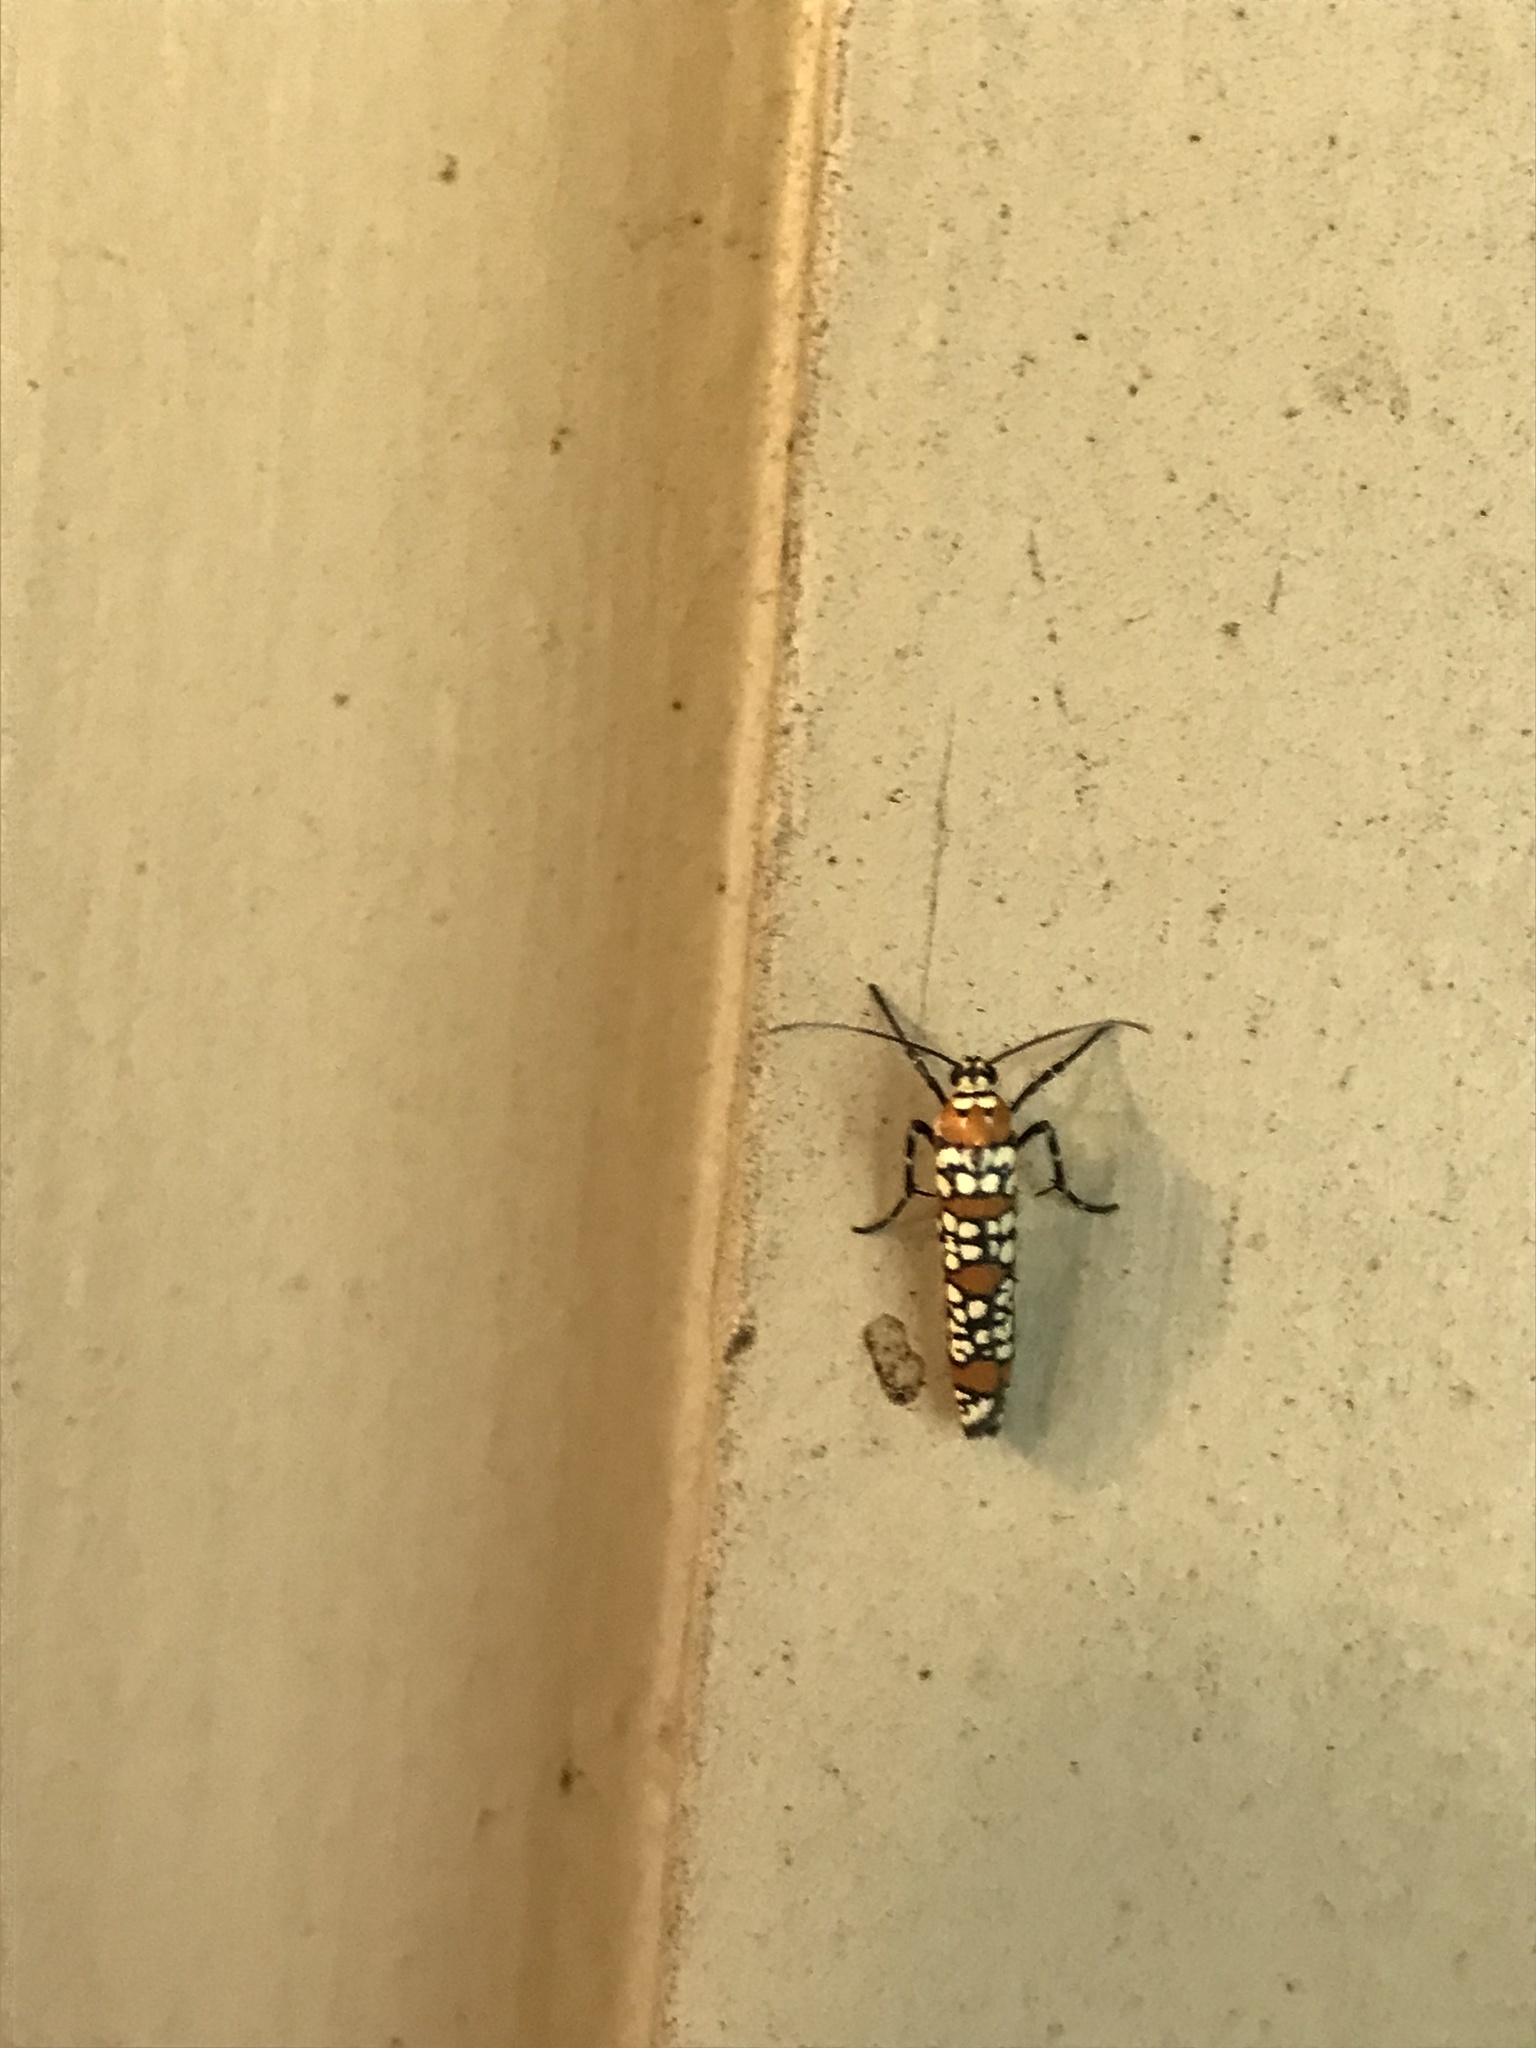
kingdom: Animalia
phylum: Arthropoda
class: Insecta
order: Lepidoptera
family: Attevidae
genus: Atteva
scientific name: Atteva punctella
